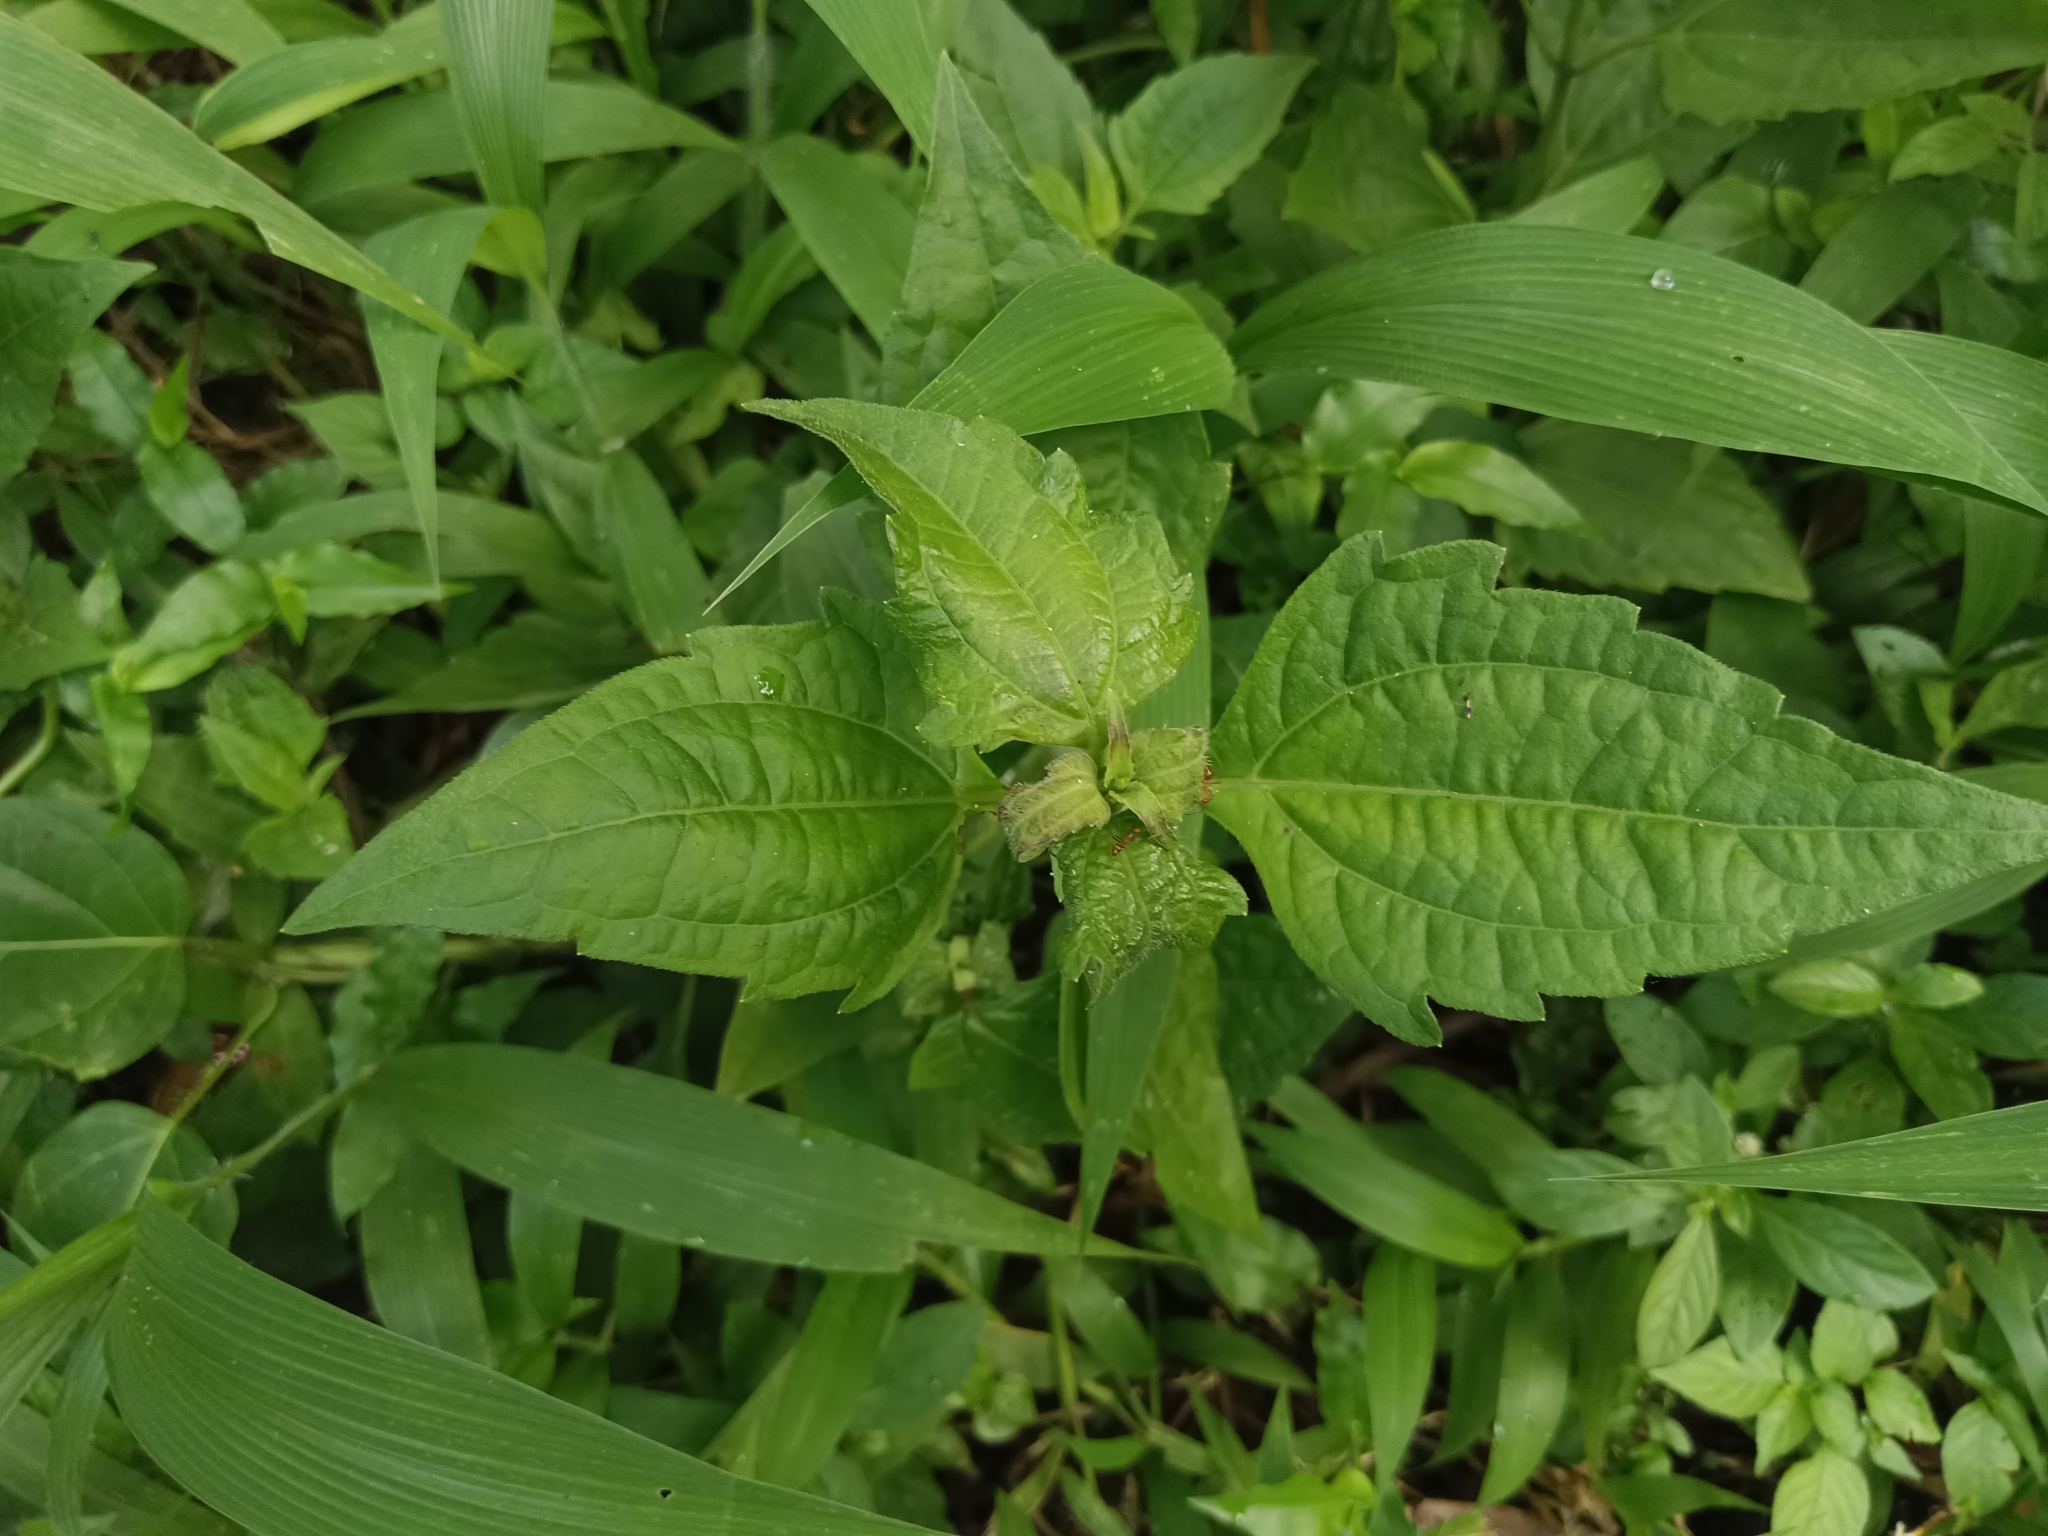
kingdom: Plantae
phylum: Tracheophyta
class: Magnoliopsida
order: Asterales
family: Asteraceae
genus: Chromolaena
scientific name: Chromolaena odorata
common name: Siamweed
